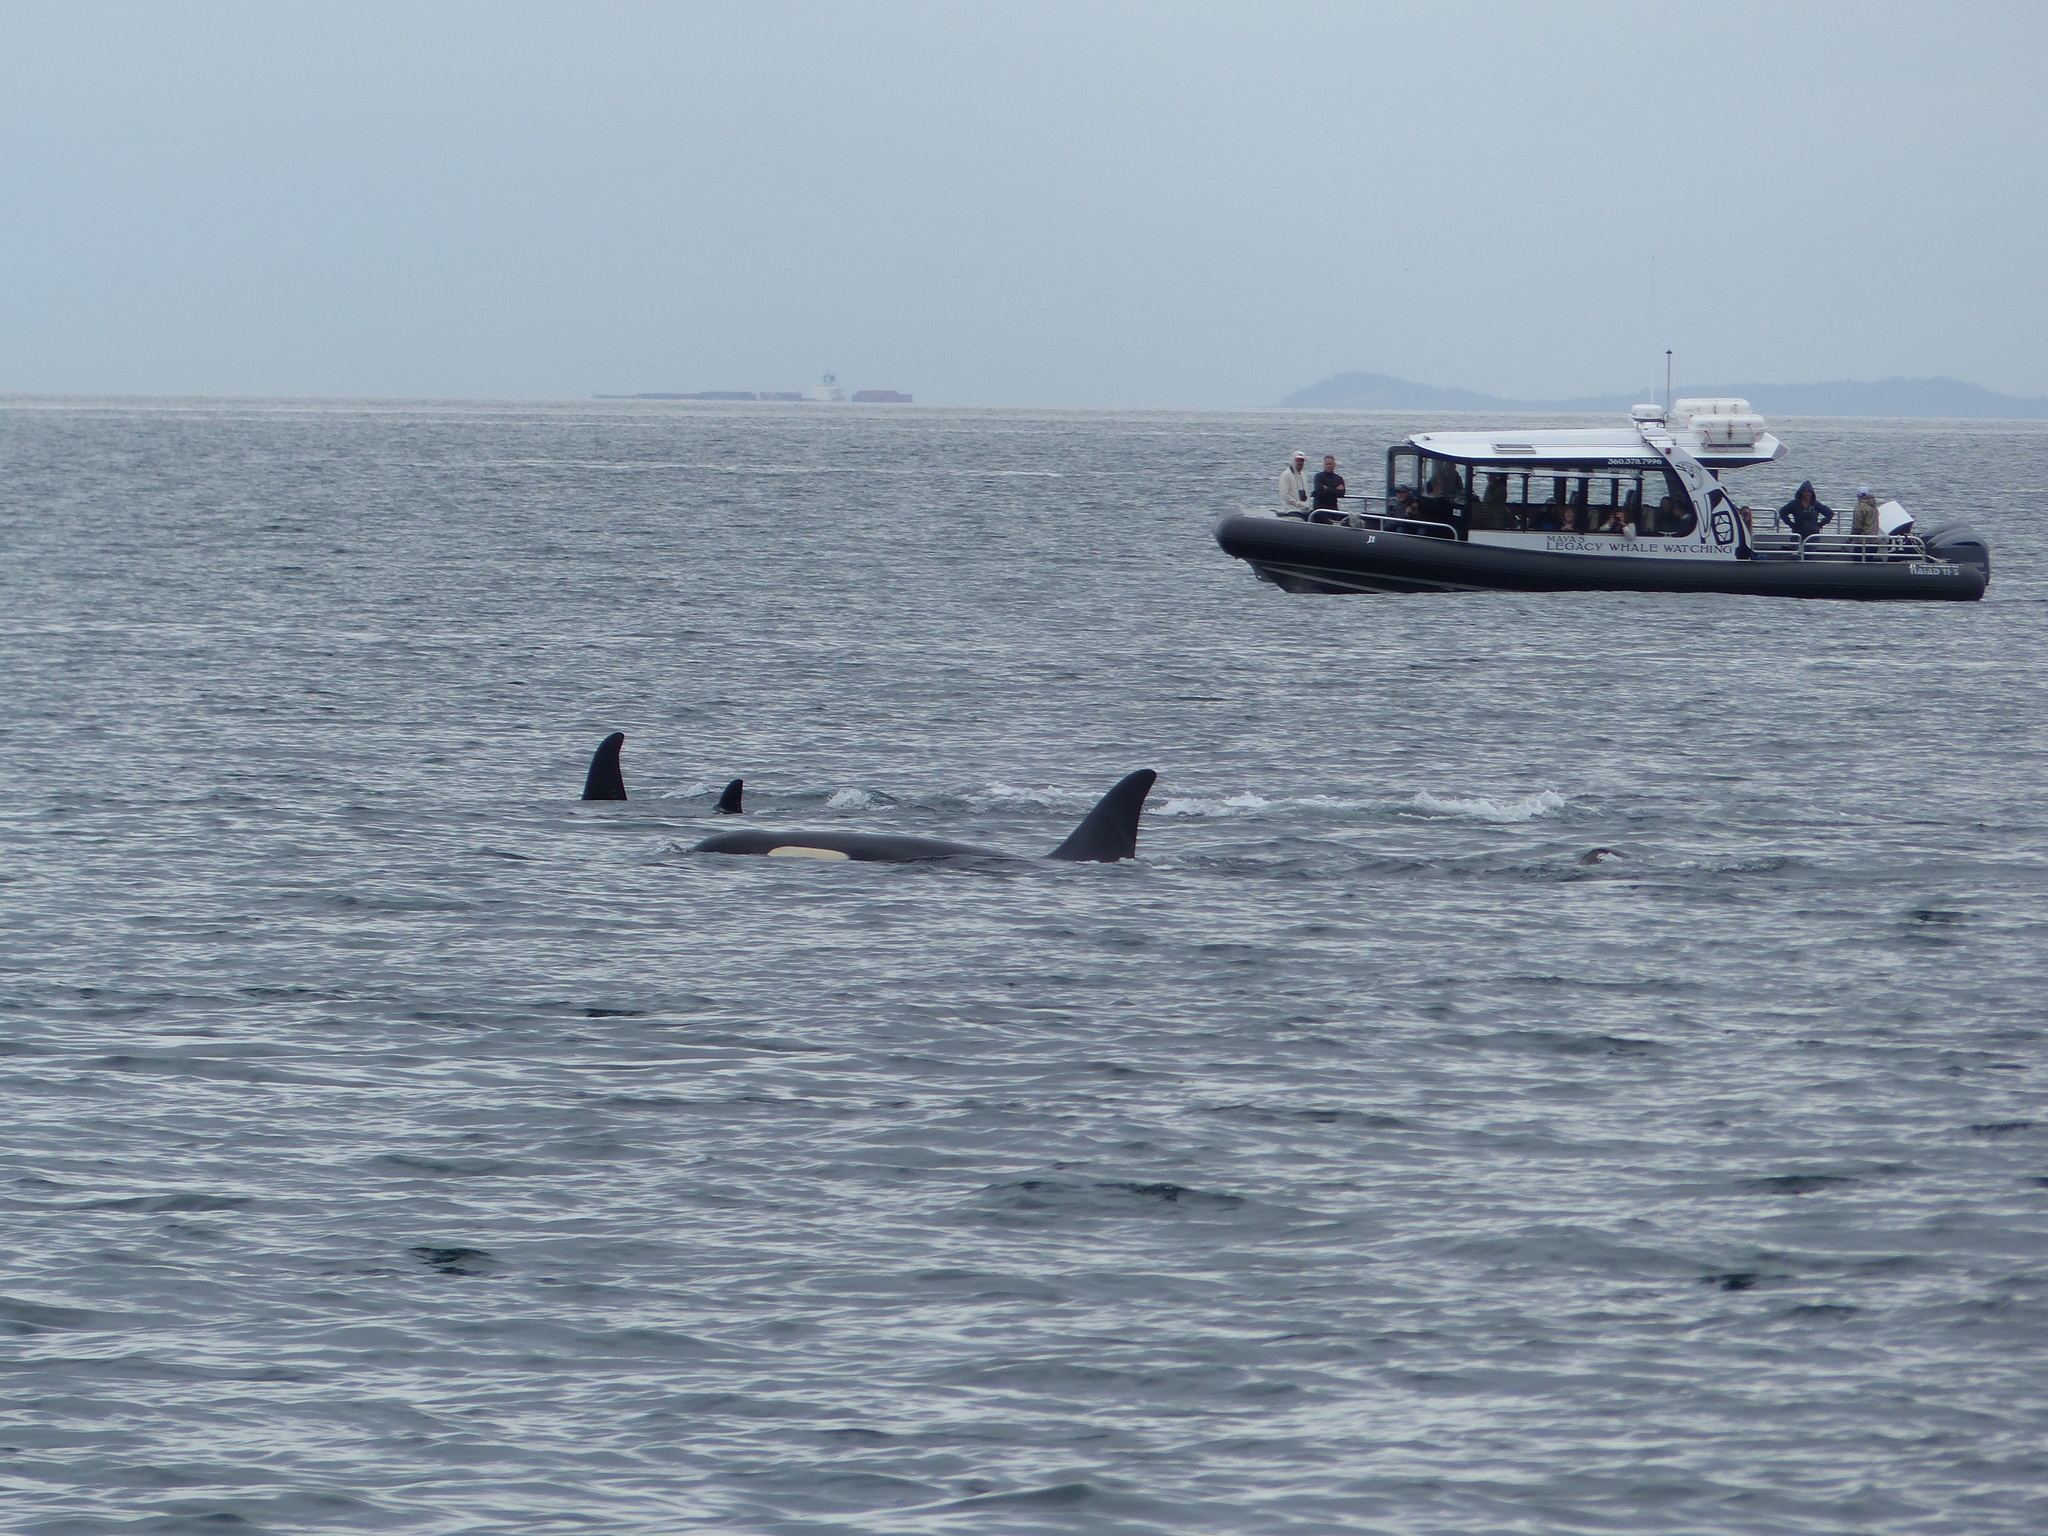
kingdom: Animalia
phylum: Chordata
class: Mammalia
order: Cetacea
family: Delphinidae
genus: Orcinus
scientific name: Orcinus orca
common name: Killer whale
